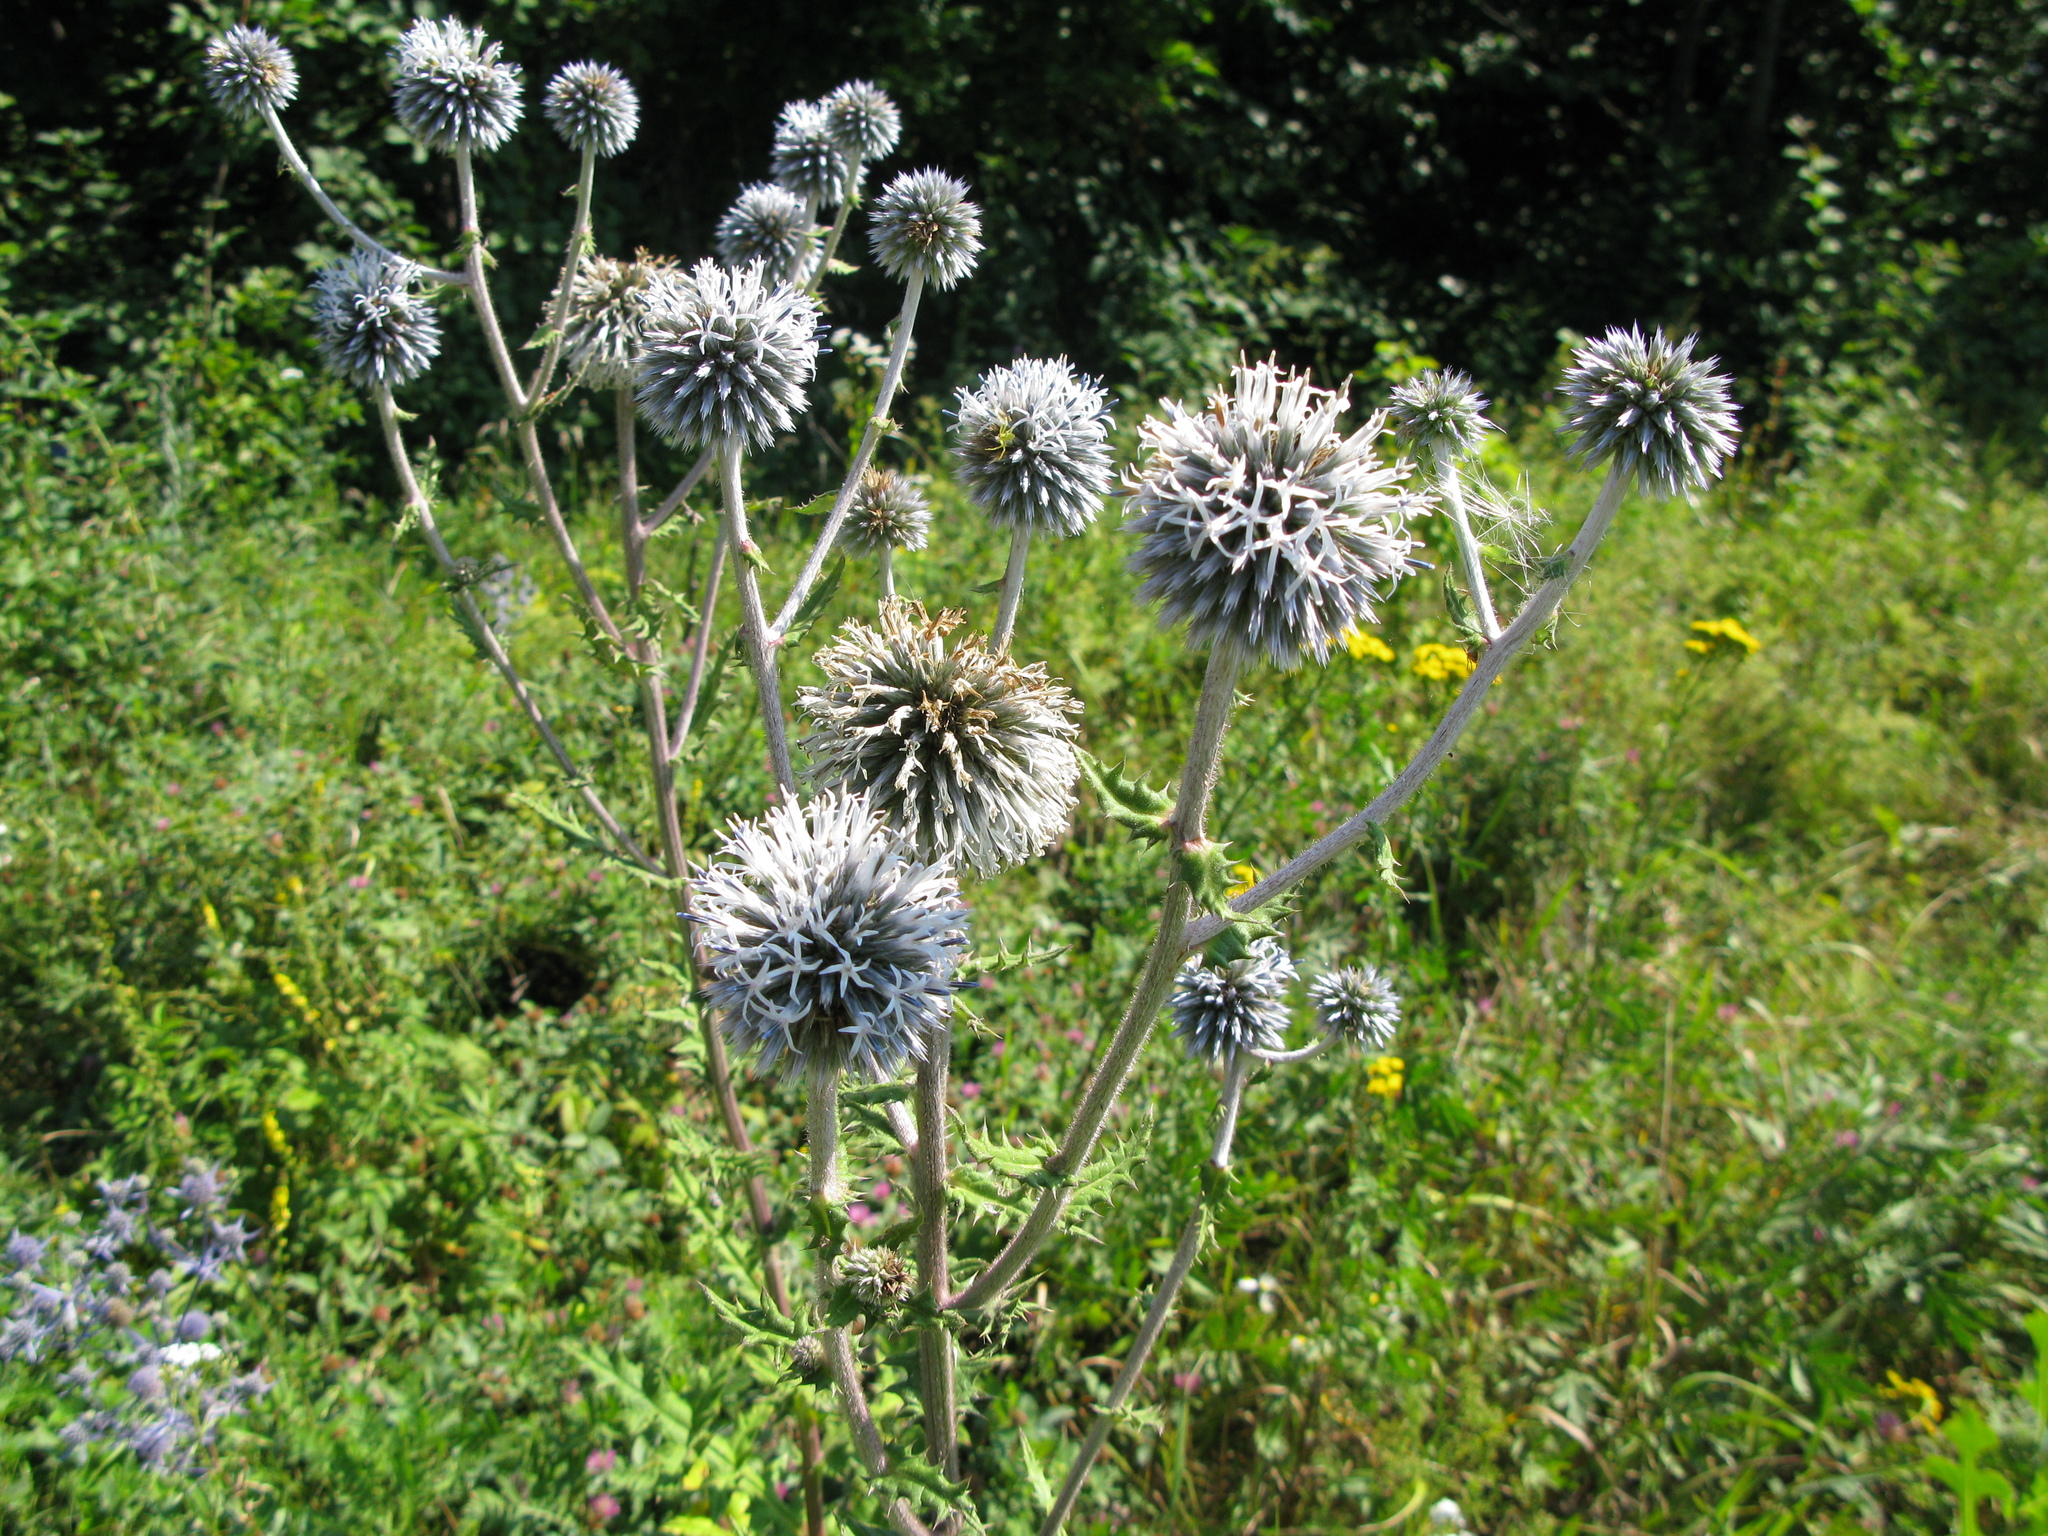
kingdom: Plantae
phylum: Tracheophyta
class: Magnoliopsida
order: Asterales
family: Asteraceae
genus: Echinops
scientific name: Echinops sphaerocephalus
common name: Glandular globe-thistle
